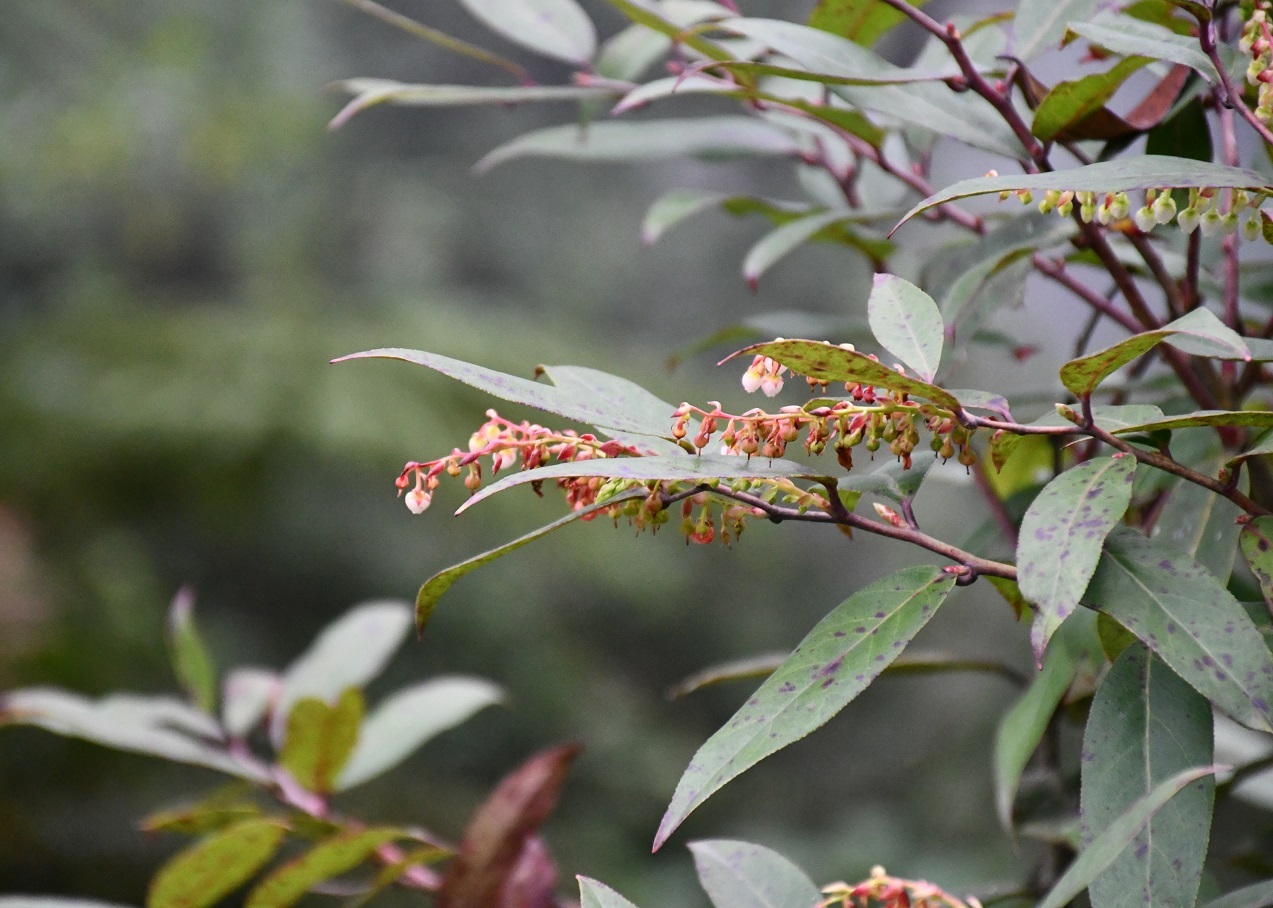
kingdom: Plantae
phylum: Tracheophyta
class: Magnoliopsida
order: Ericales
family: Ericaceae
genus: Gaultheria
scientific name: Gaultheria acuminata
